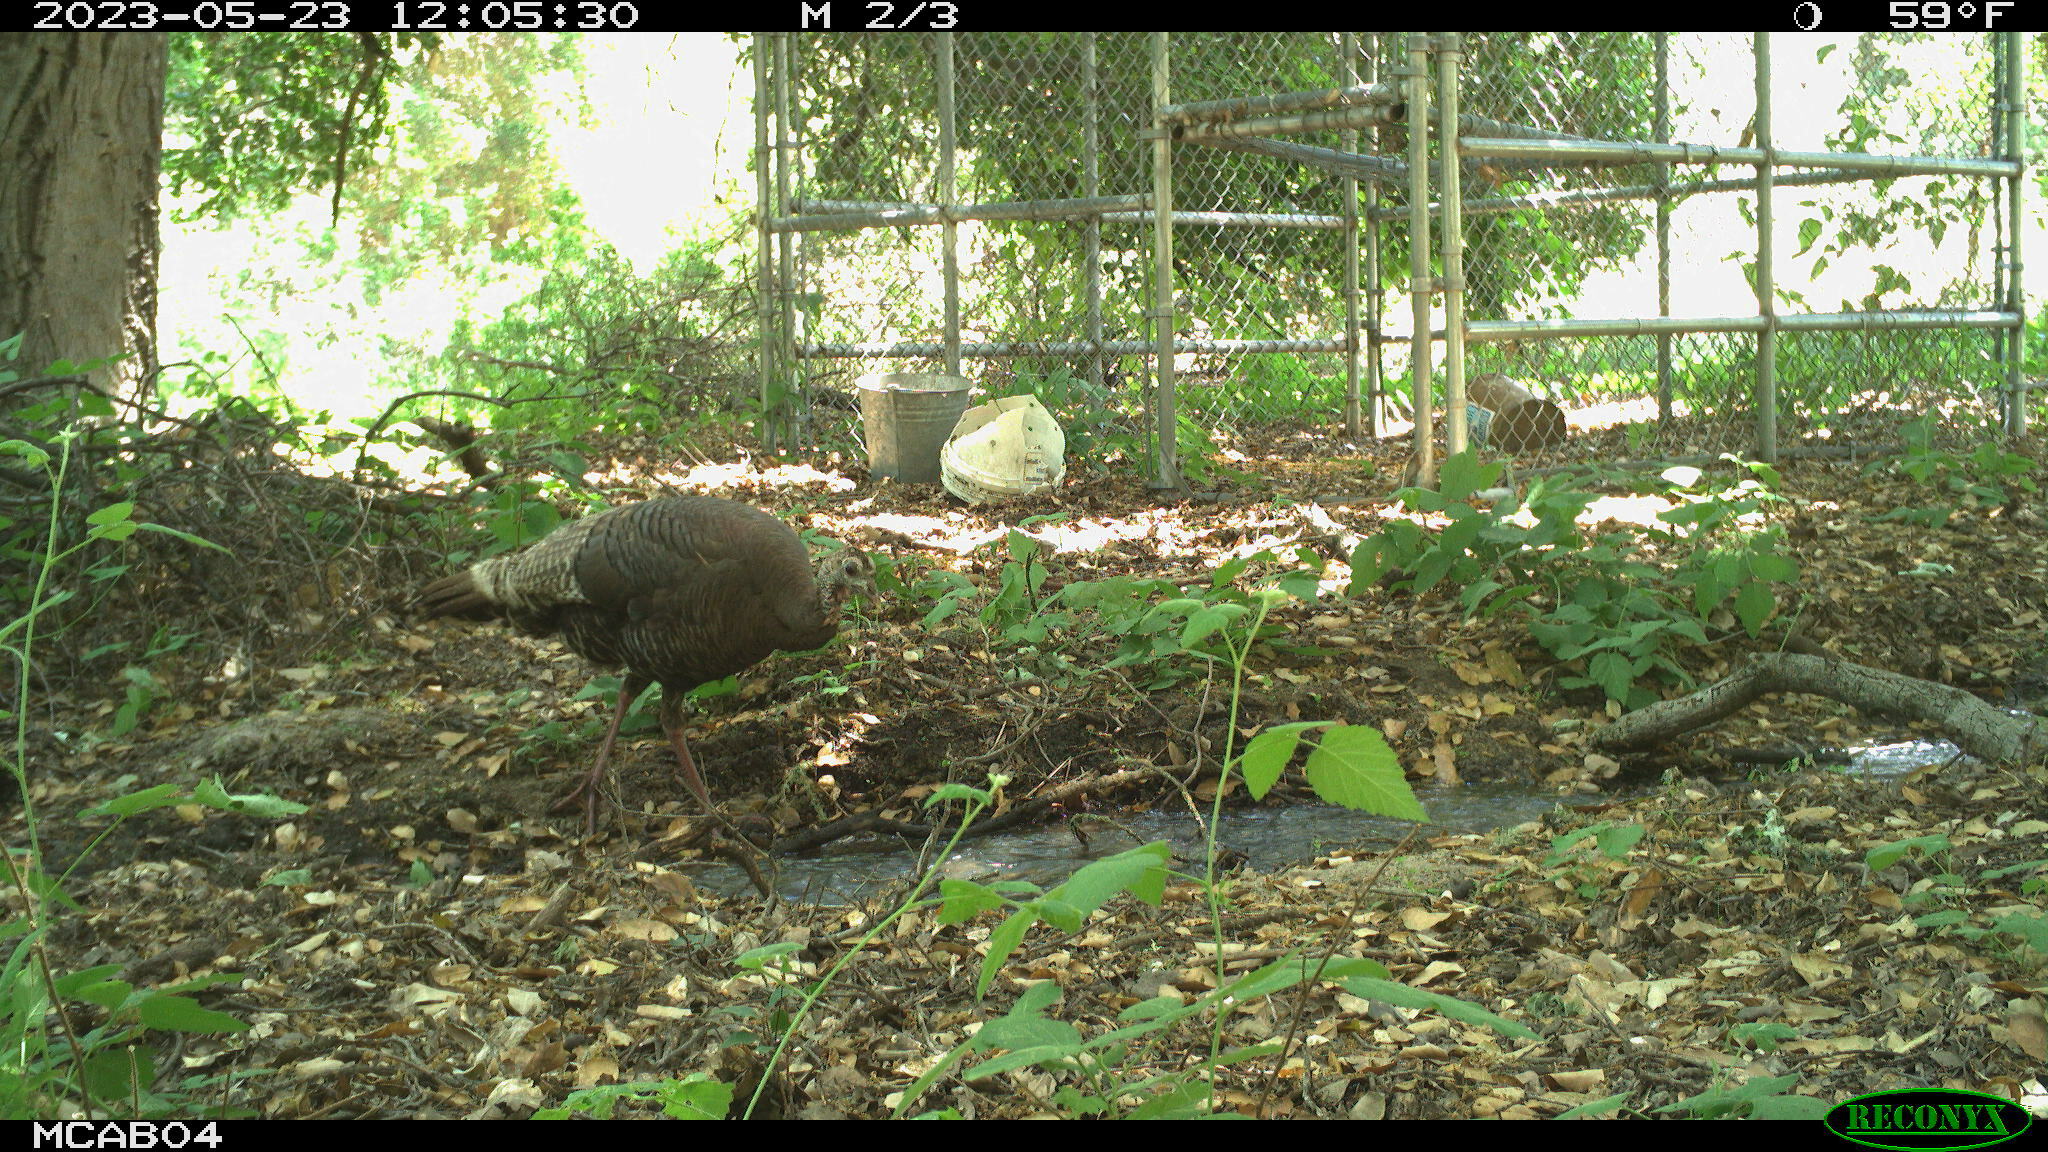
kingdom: Animalia
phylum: Chordata
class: Aves
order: Galliformes
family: Phasianidae
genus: Meleagris
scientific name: Meleagris gallopavo
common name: Wild turkey
